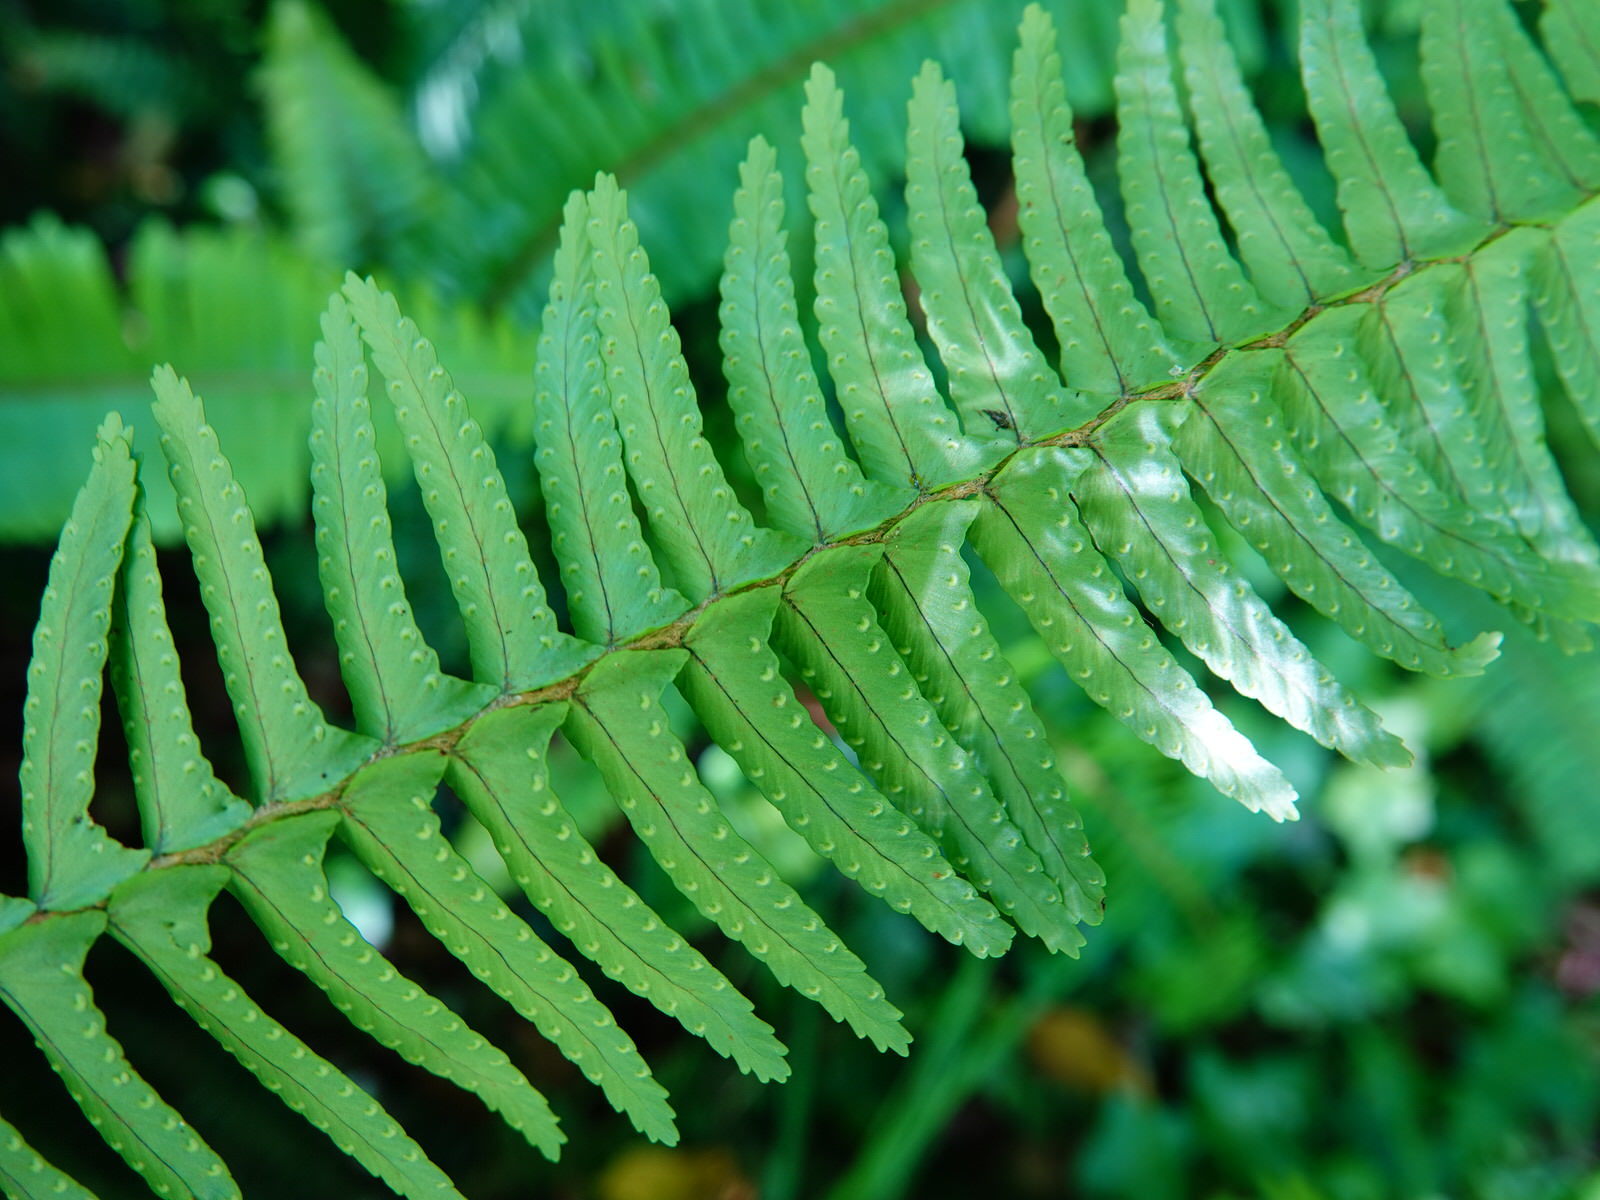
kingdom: Plantae
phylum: Tracheophyta
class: Polypodiopsida
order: Polypodiales
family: Nephrolepidaceae
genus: Nephrolepis
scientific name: Nephrolepis cordifolia
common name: Narrow swordfern
